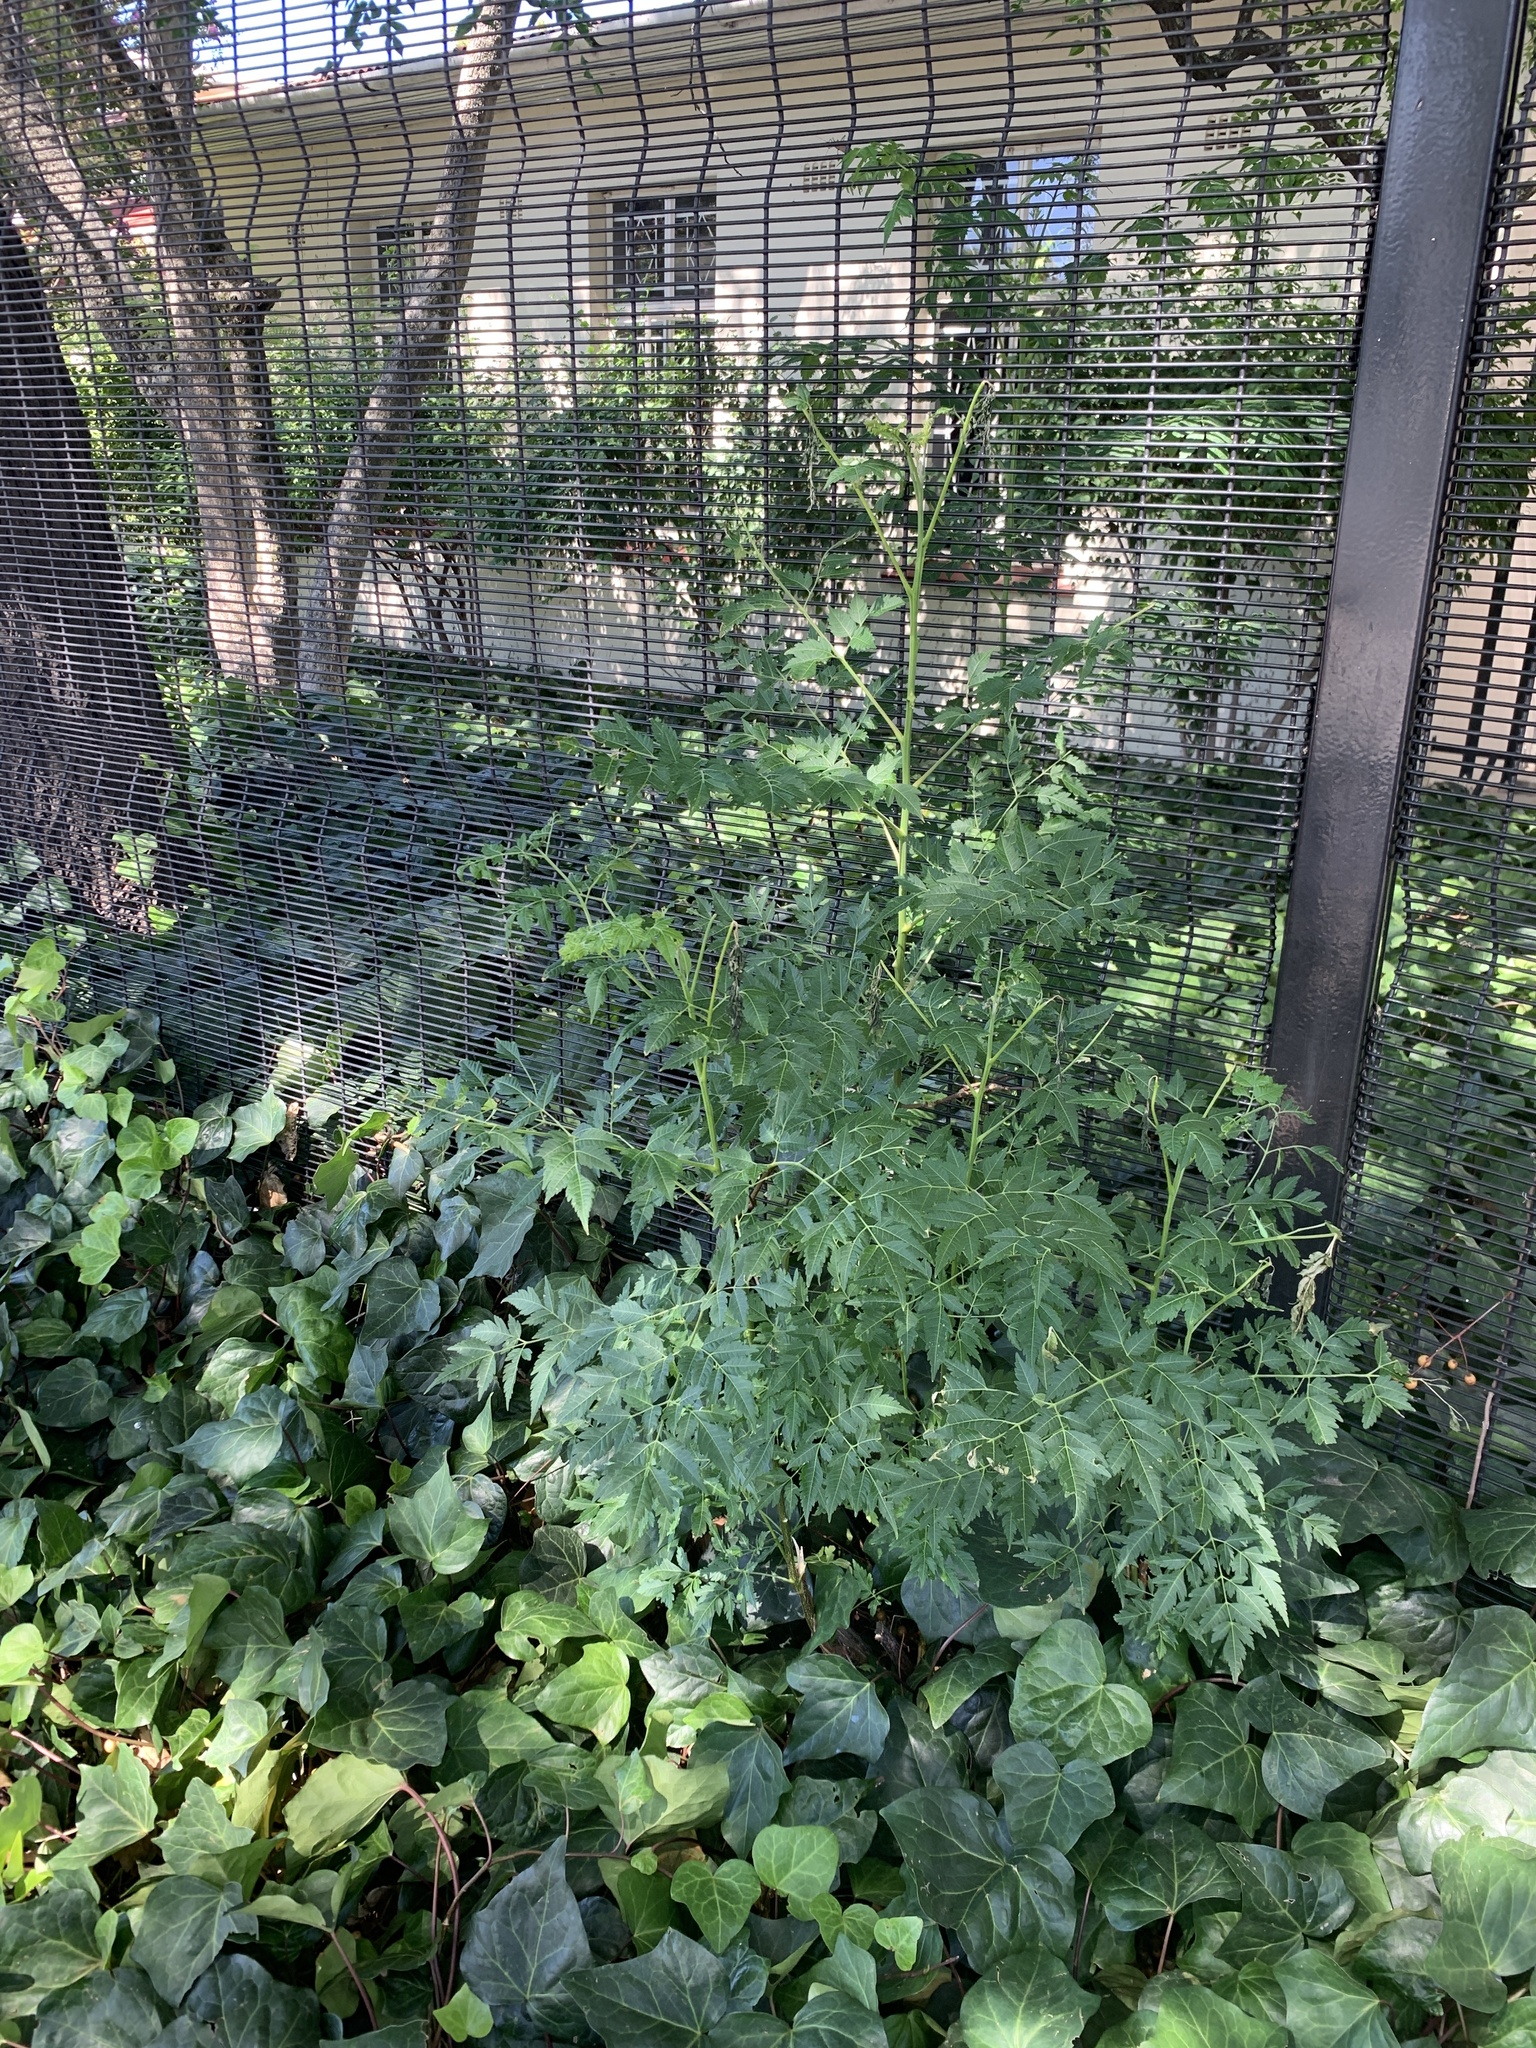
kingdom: Plantae
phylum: Tracheophyta
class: Magnoliopsida
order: Sapindales
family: Meliaceae
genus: Melia
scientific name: Melia azedarach
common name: Chinaberrytree
